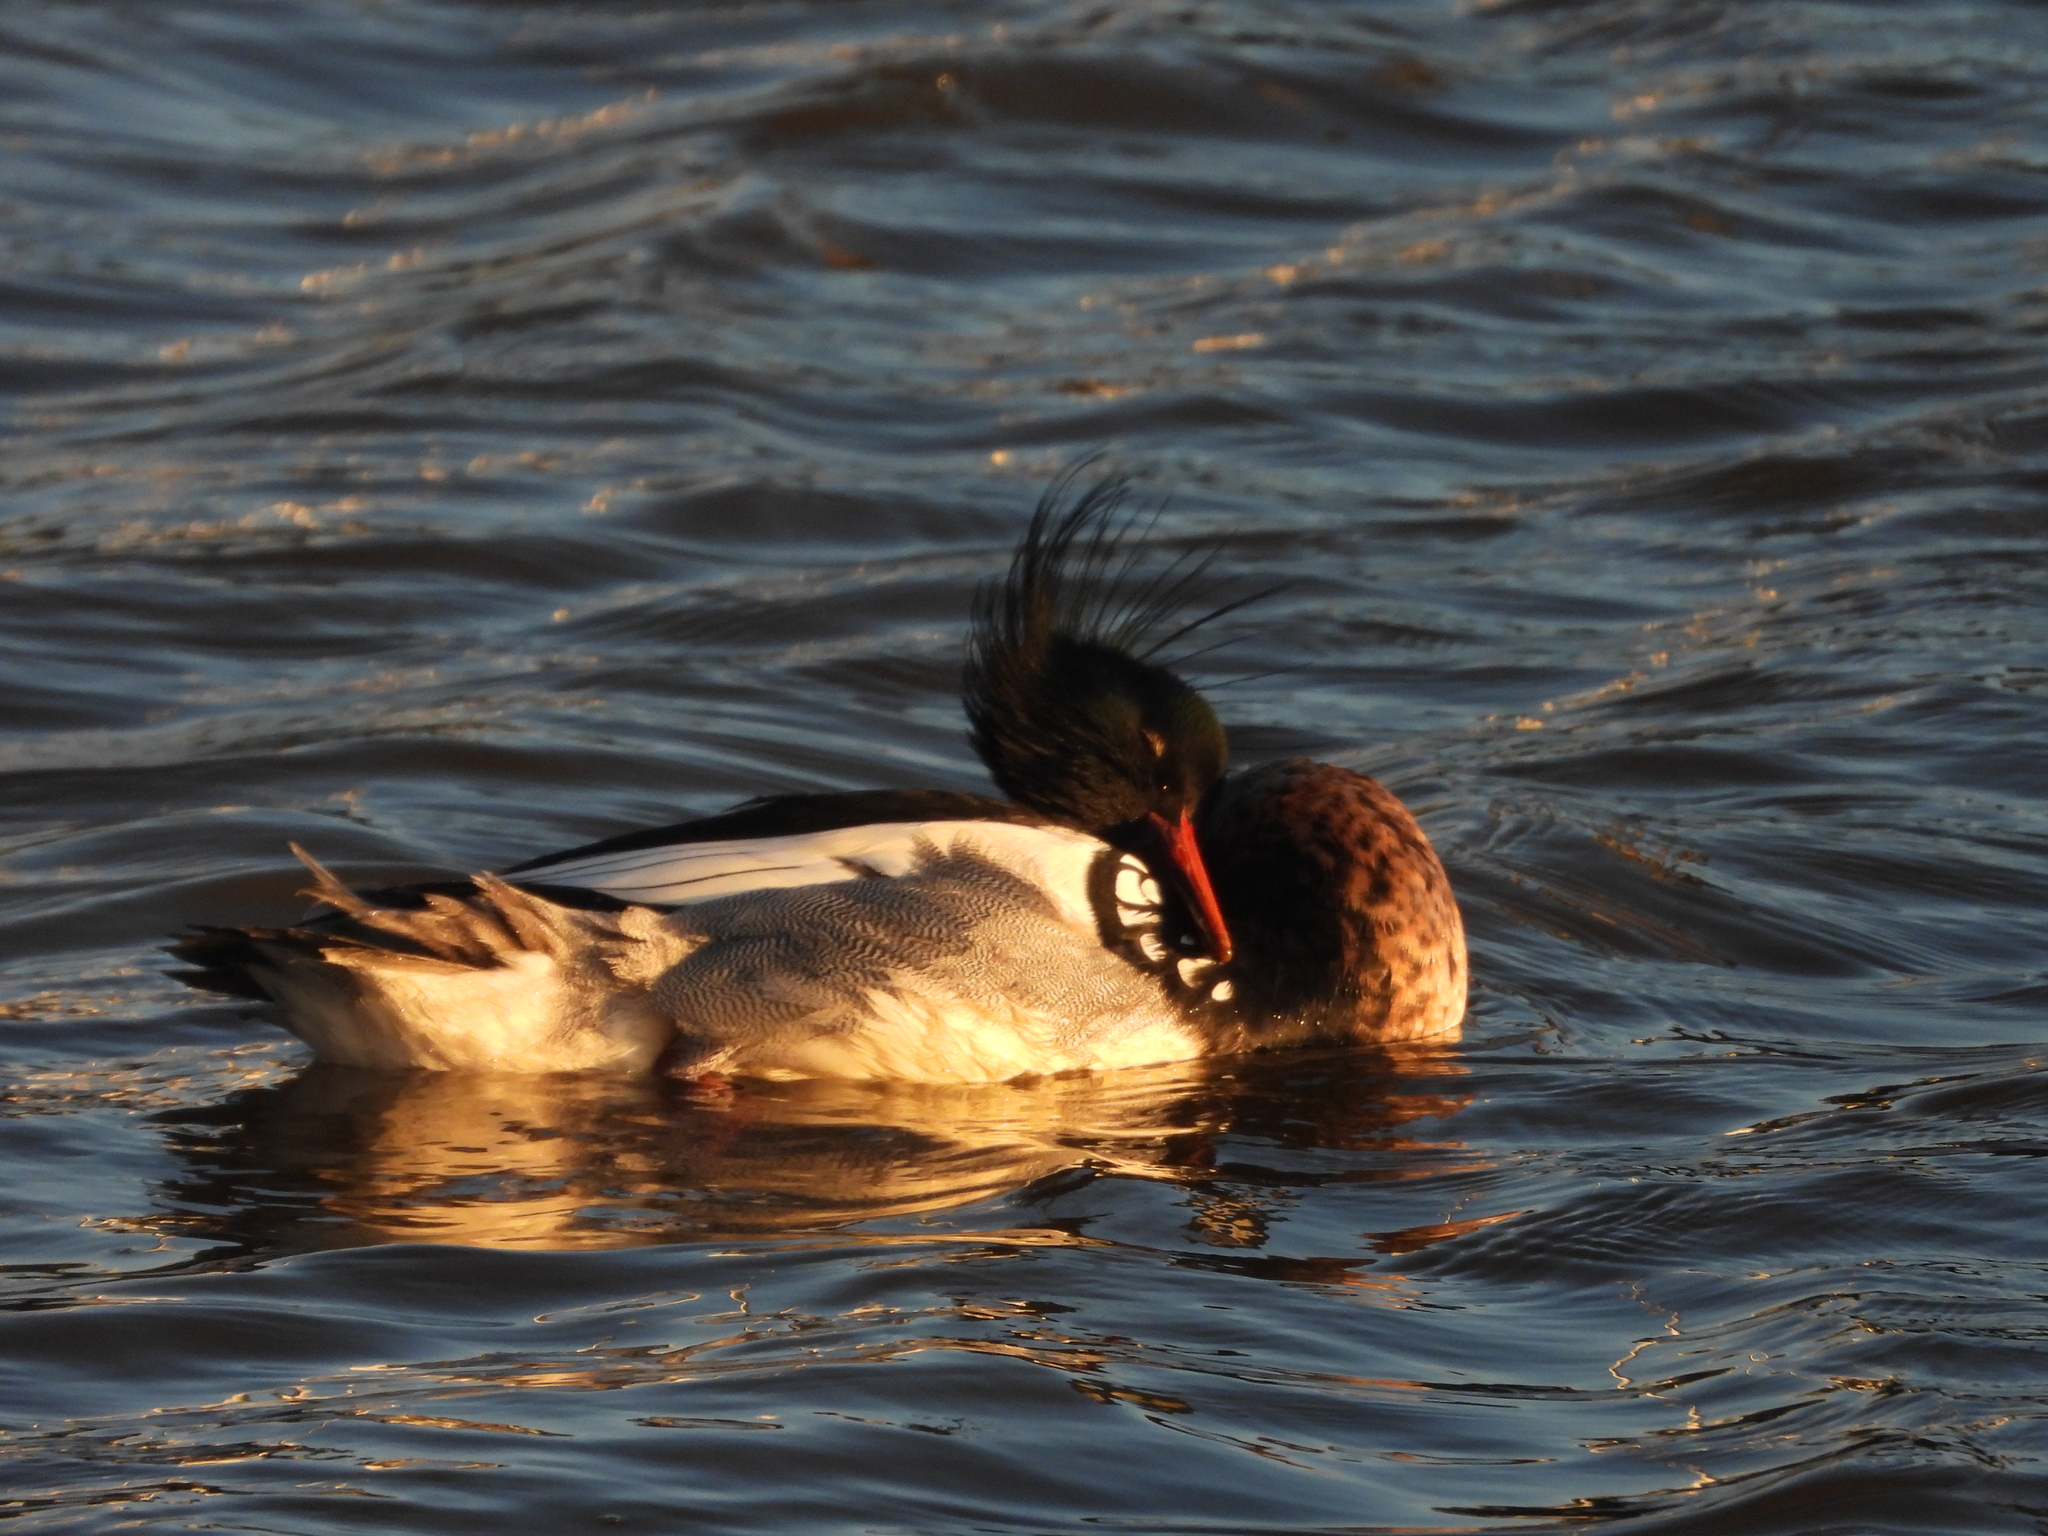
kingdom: Animalia
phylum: Chordata
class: Aves
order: Anseriformes
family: Anatidae
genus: Mergus
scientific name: Mergus serrator
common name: Red-breasted merganser
